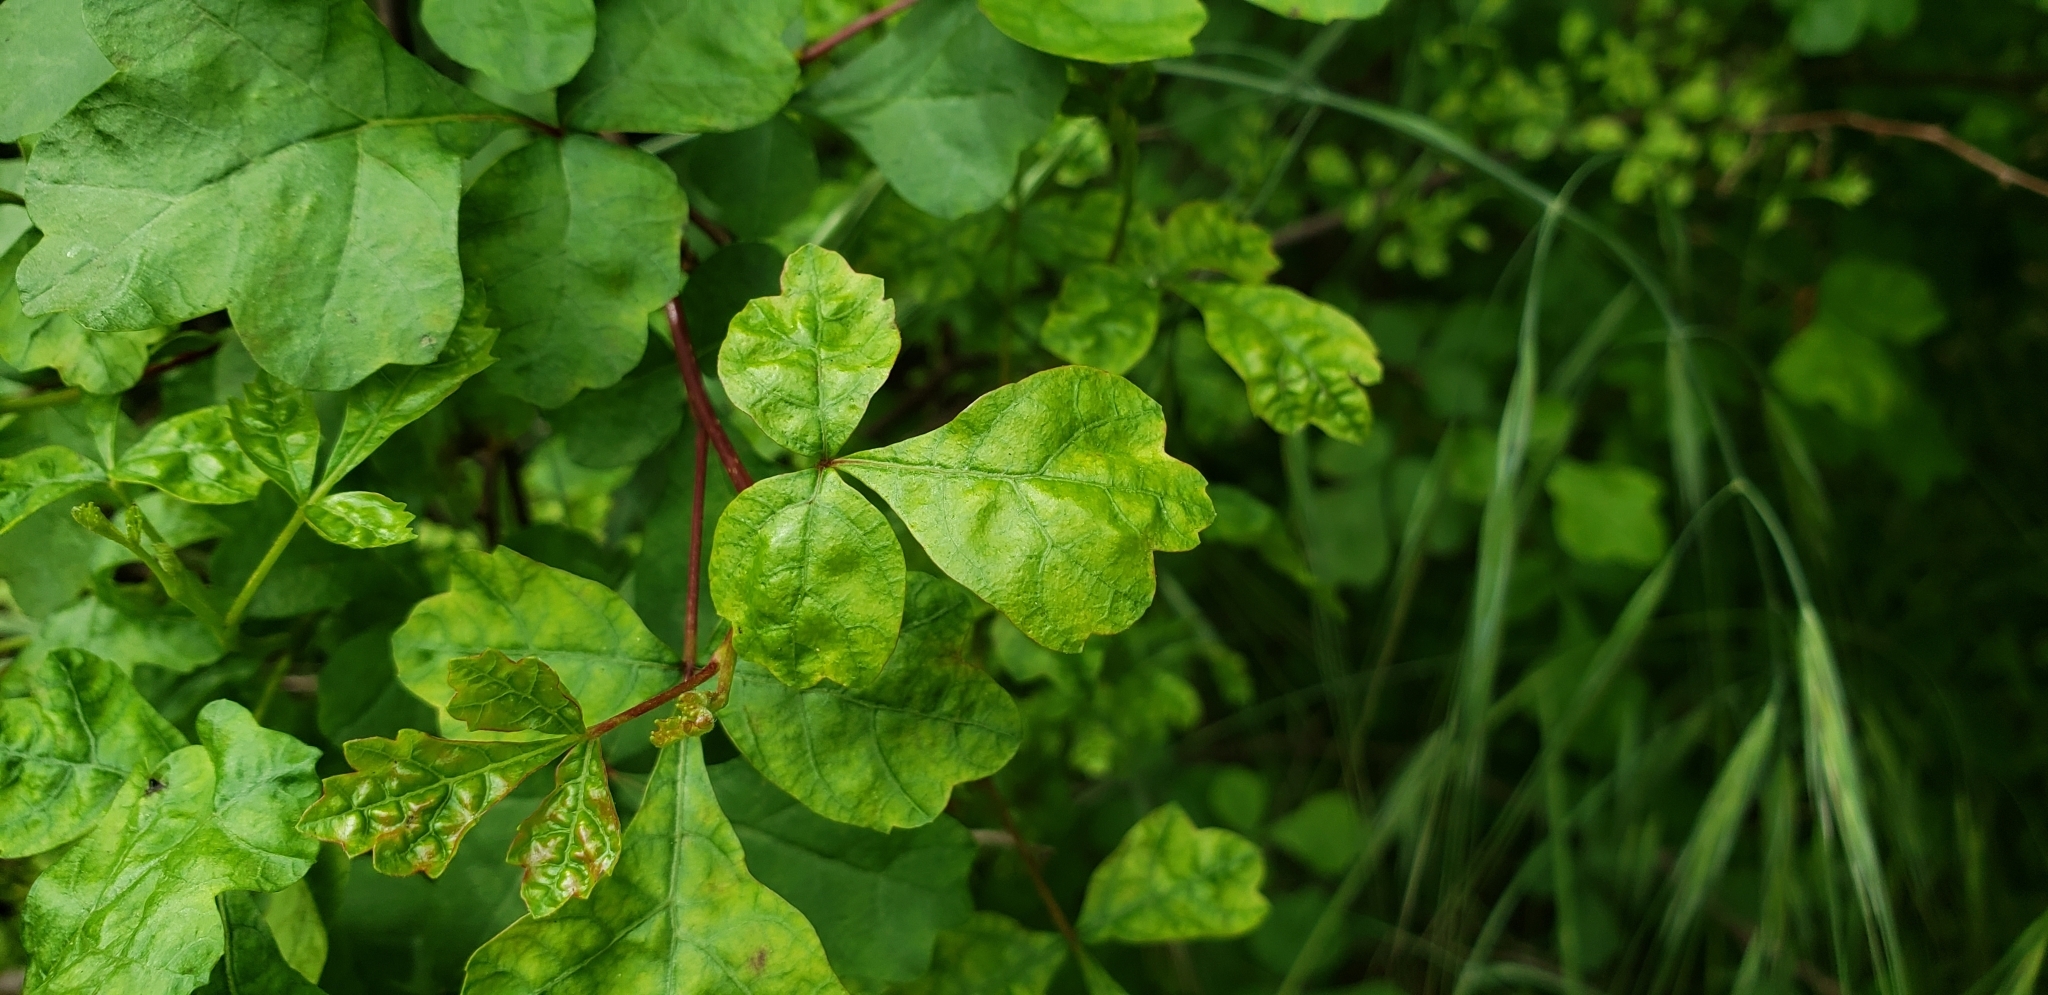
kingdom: Plantae
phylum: Tracheophyta
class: Magnoliopsida
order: Sapindales
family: Anacardiaceae
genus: Rhus
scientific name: Rhus aromatica
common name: Aromatic sumac
